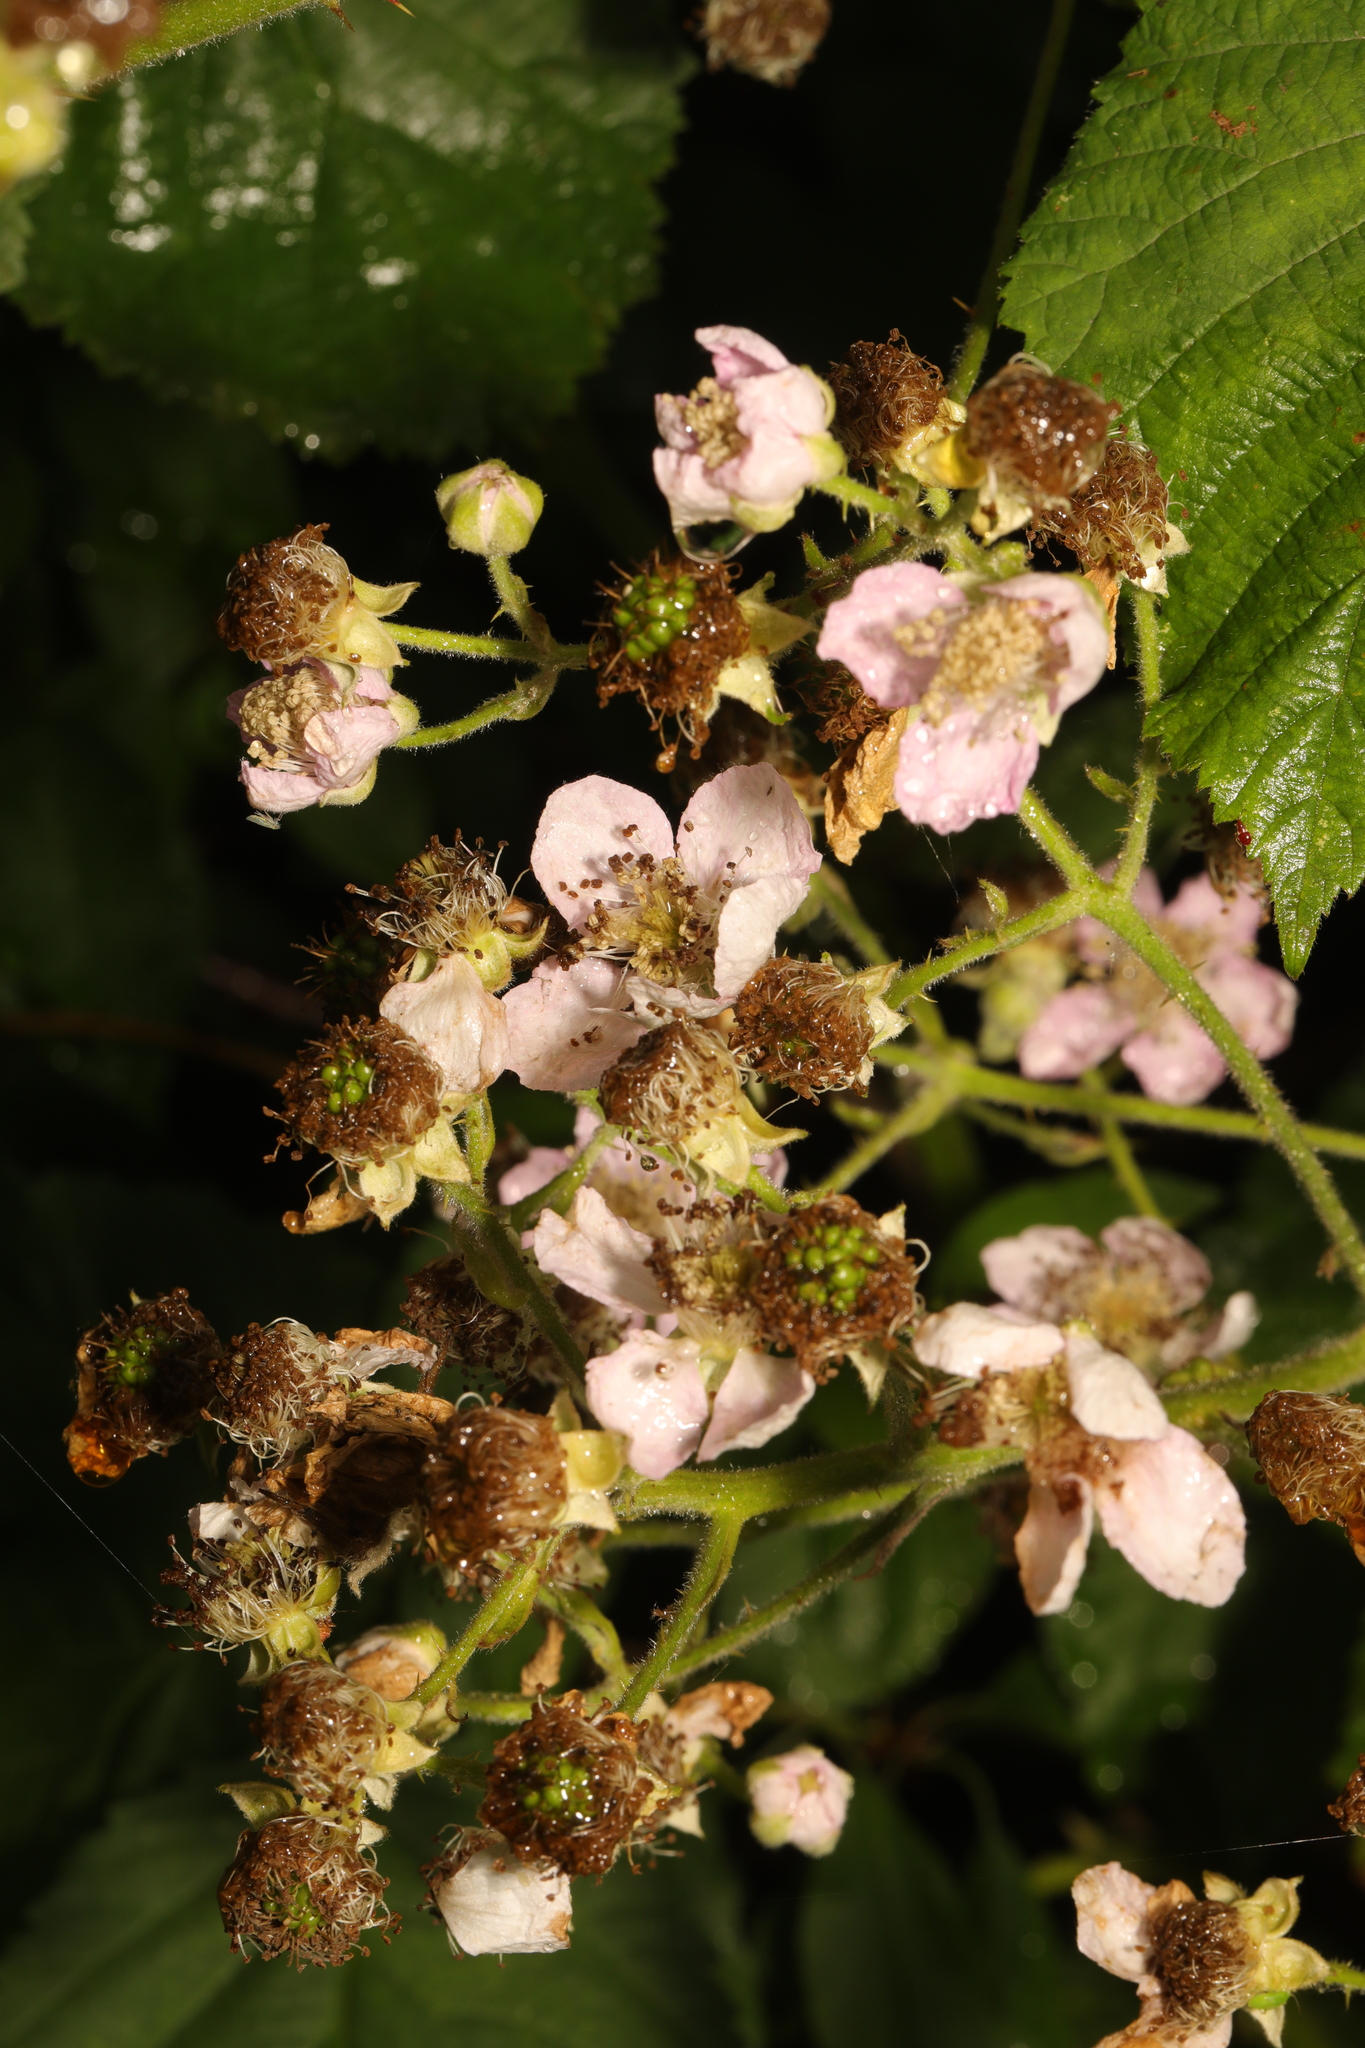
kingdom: Plantae
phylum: Tracheophyta
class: Magnoliopsida
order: Rosales
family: Rosaceae
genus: Rubus
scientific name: Rubus armeniacus
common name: Himalayan blackberry
